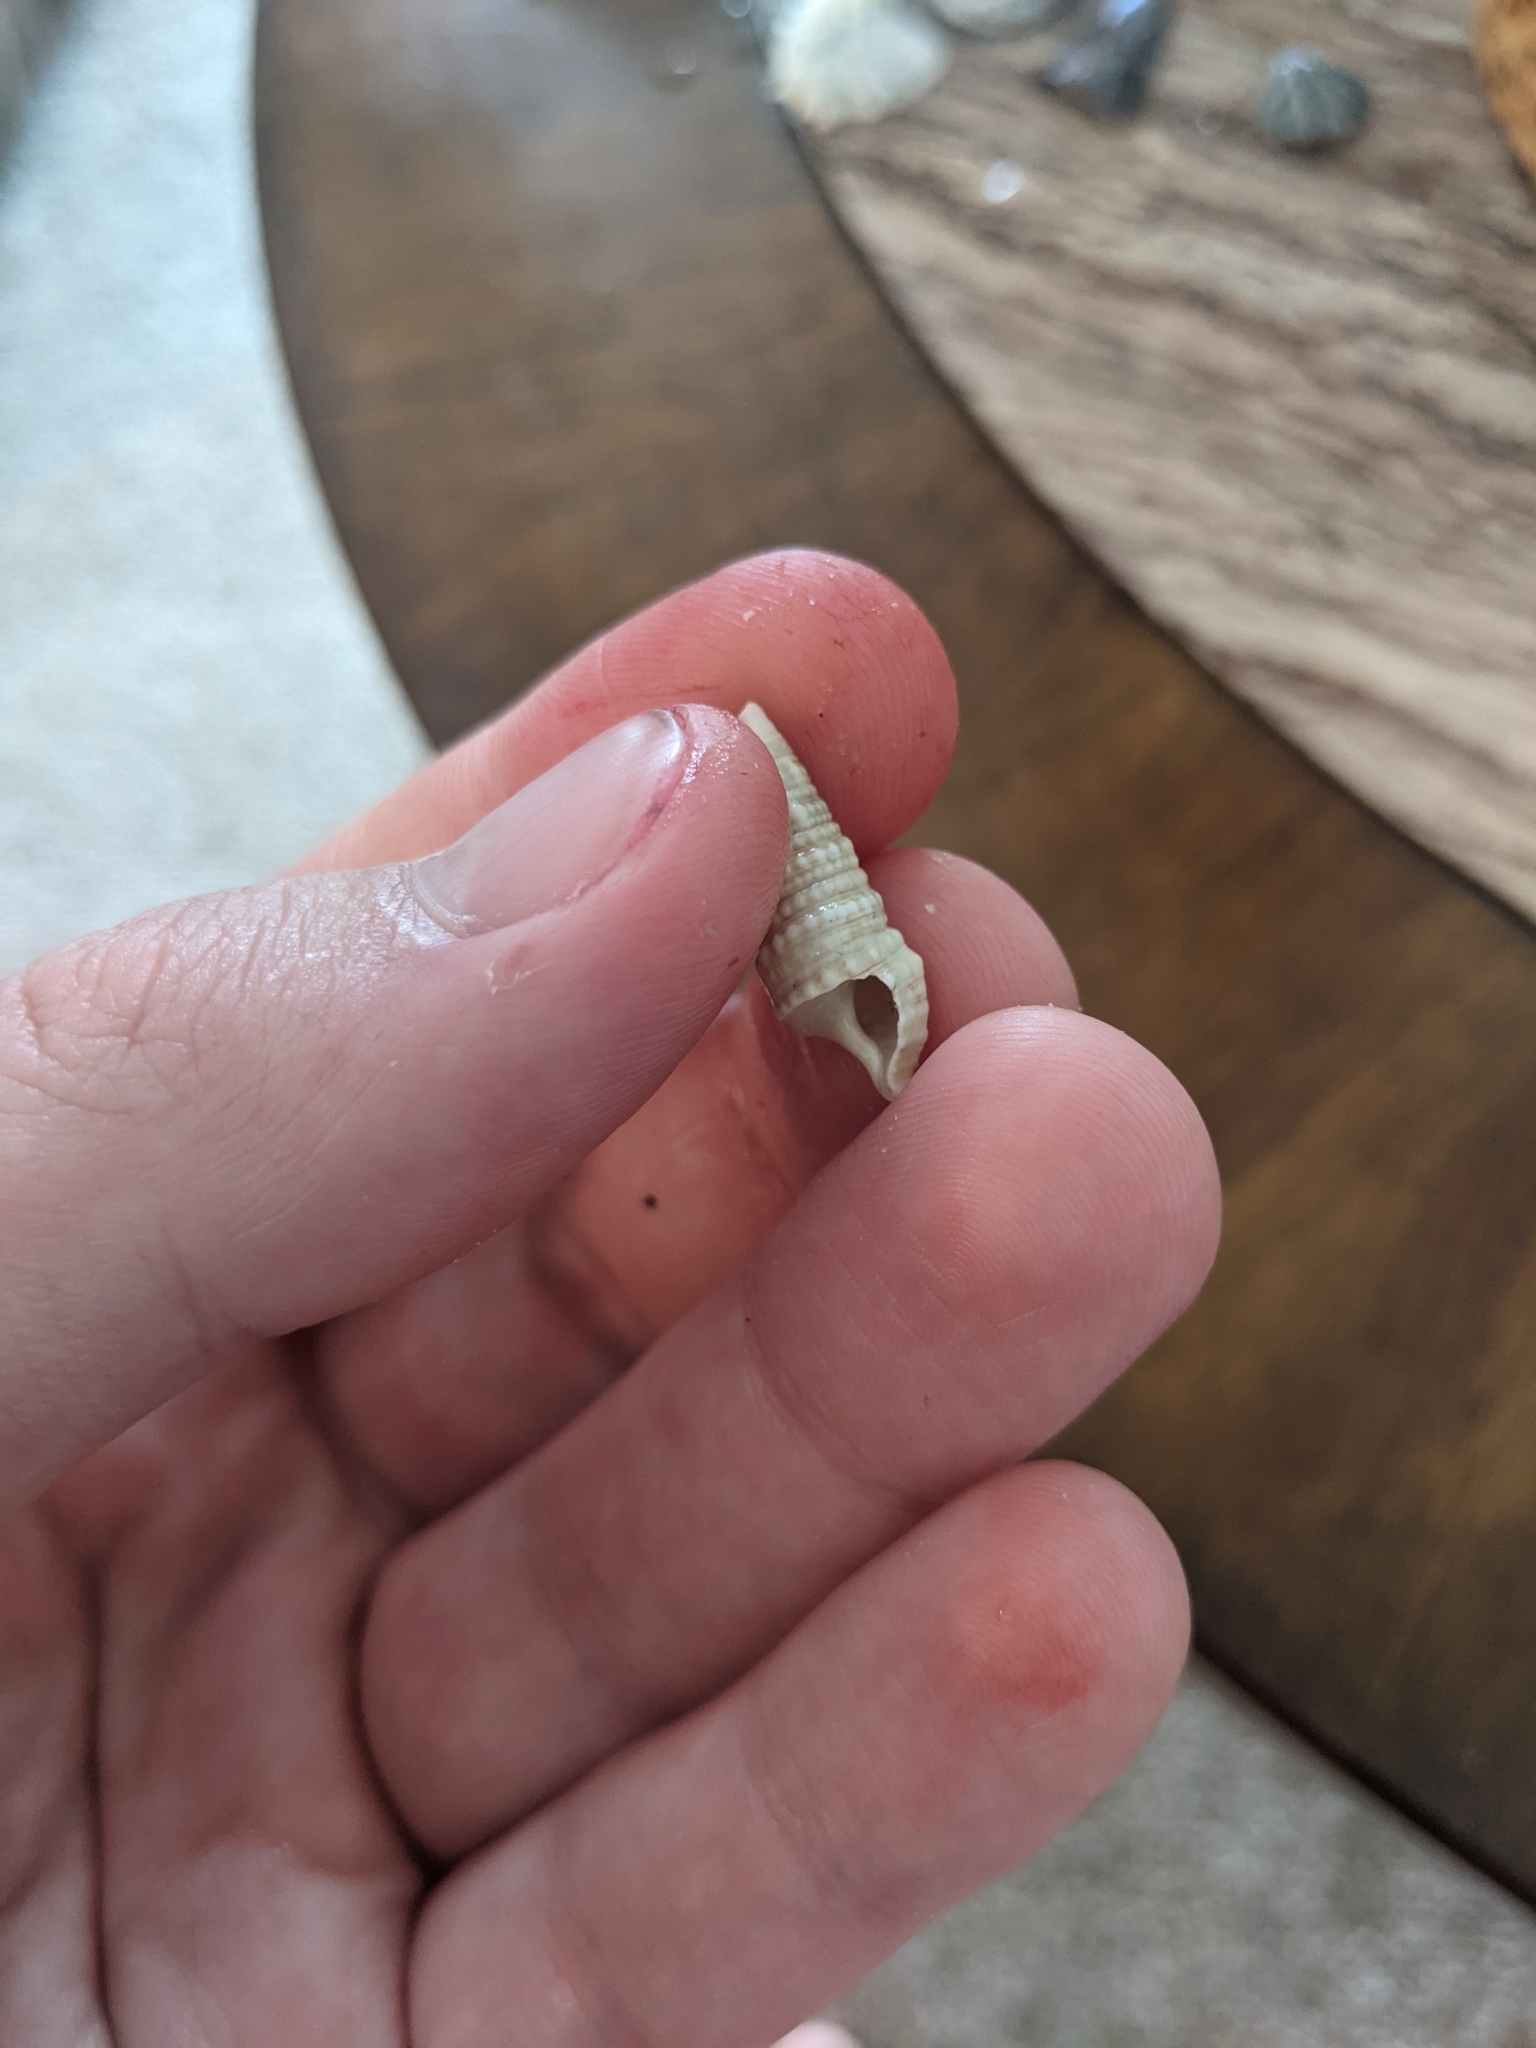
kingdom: Animalia
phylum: Mollusca
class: Gastropoda
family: Cerithiidae
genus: Cerithium
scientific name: Cerithium atratum
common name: Dark cerith
